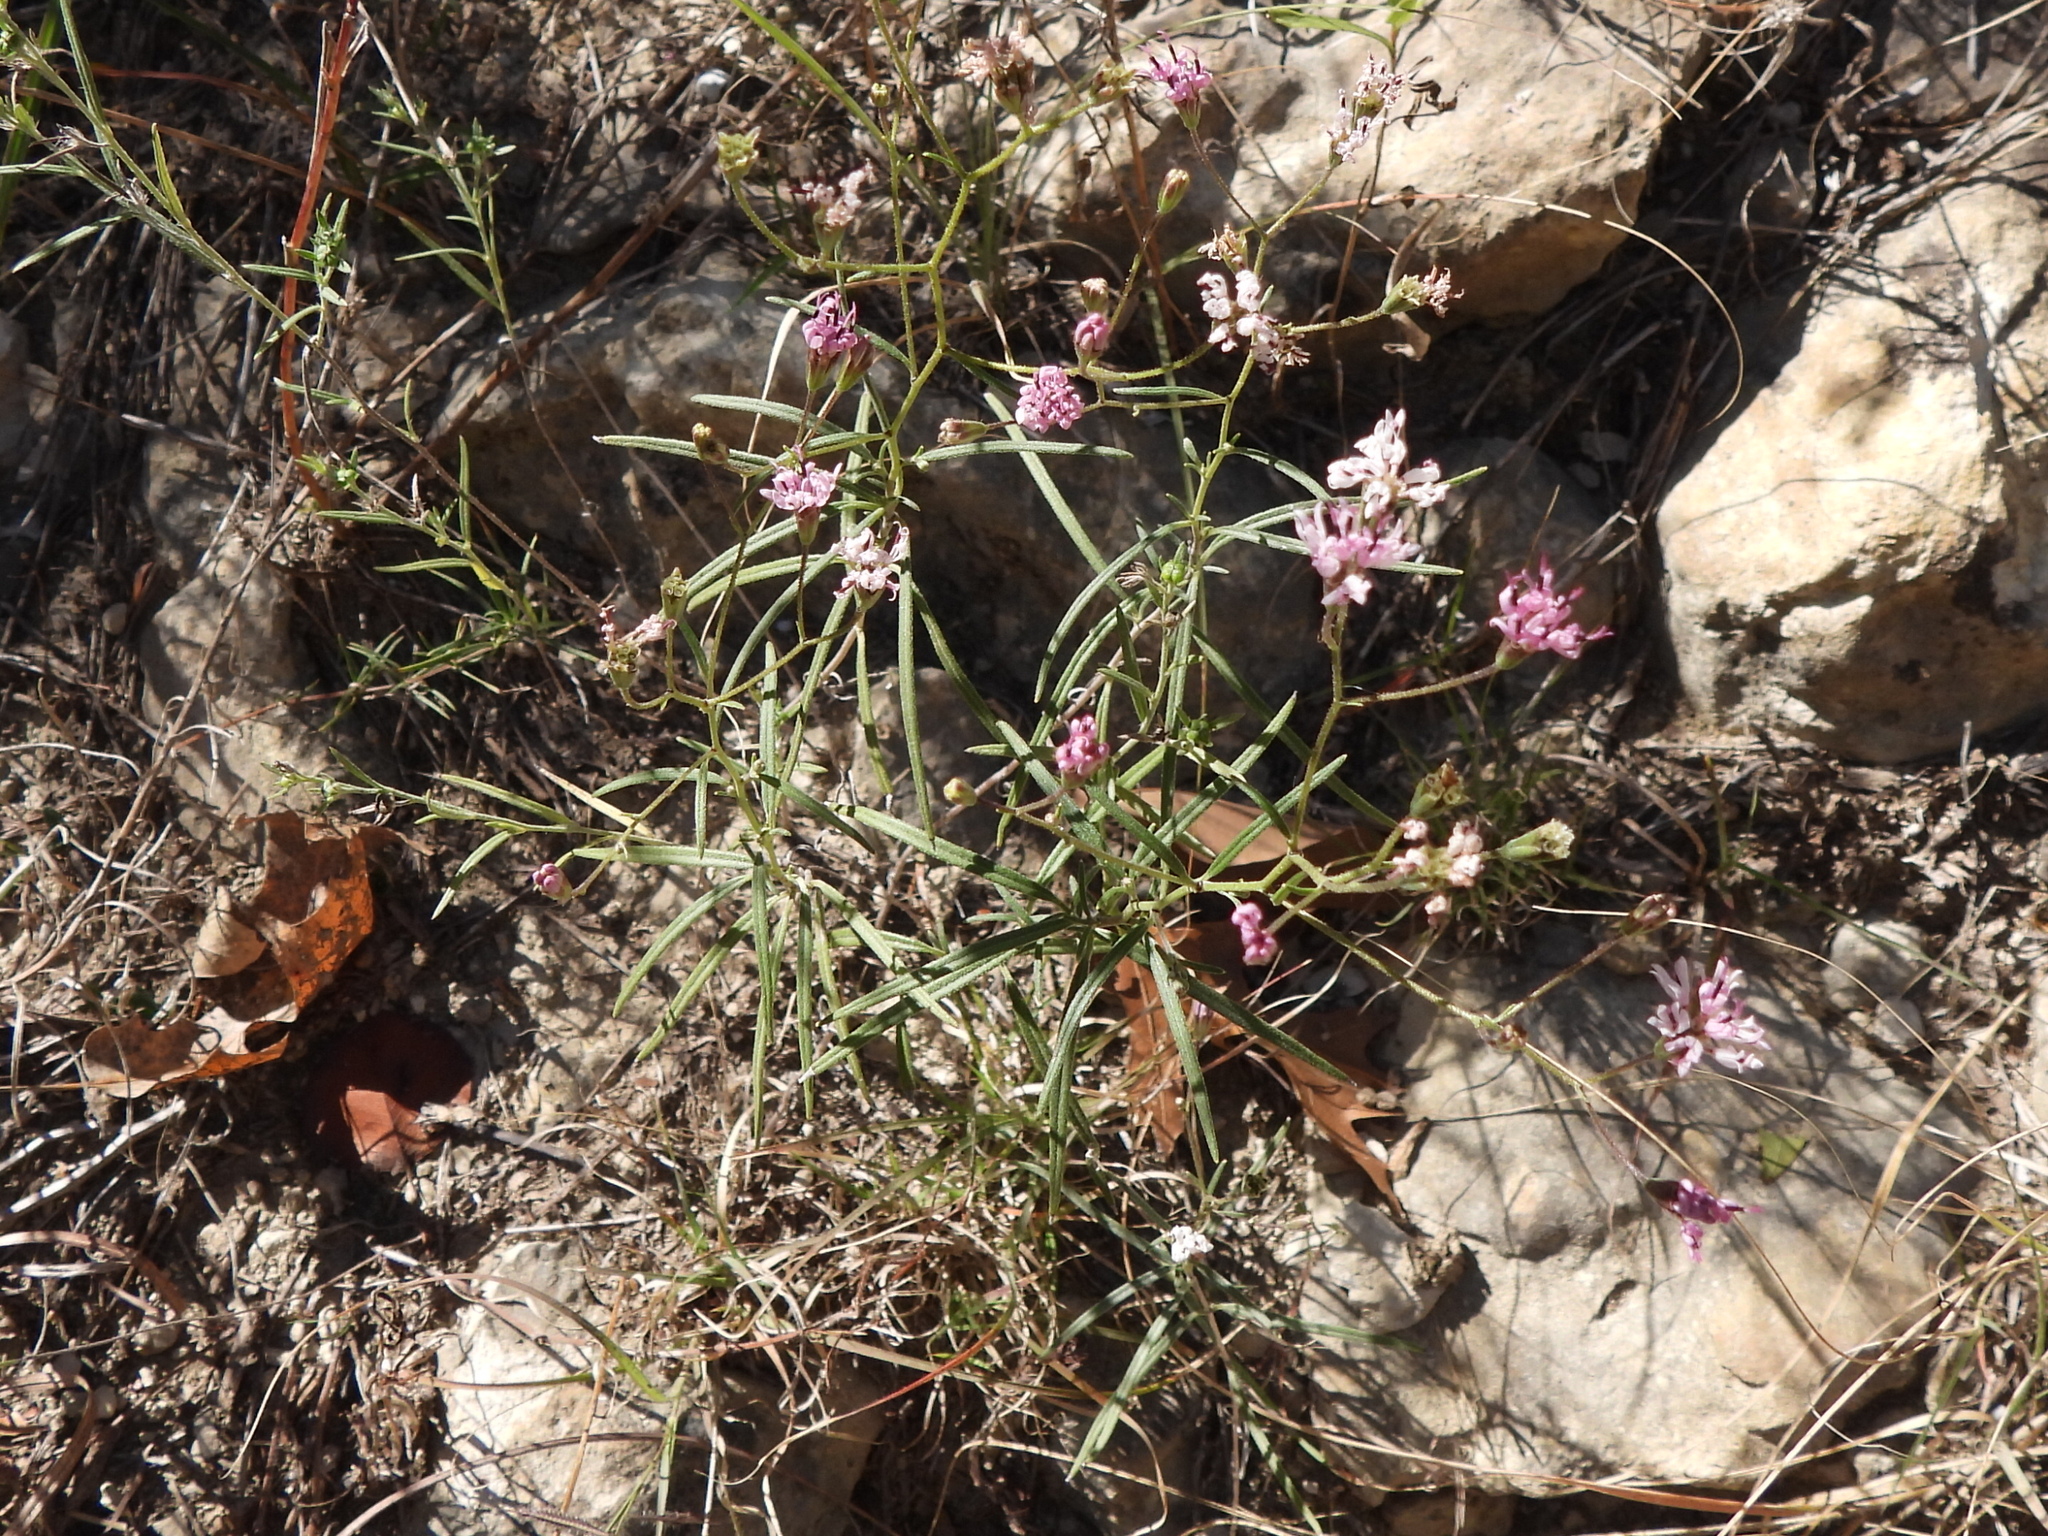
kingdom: Plantae
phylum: Tracheophyta
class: Magnoliopsida
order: Asterales
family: Asteraceae
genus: Palafoxia
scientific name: Palafoxia callosa
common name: Small palafox
